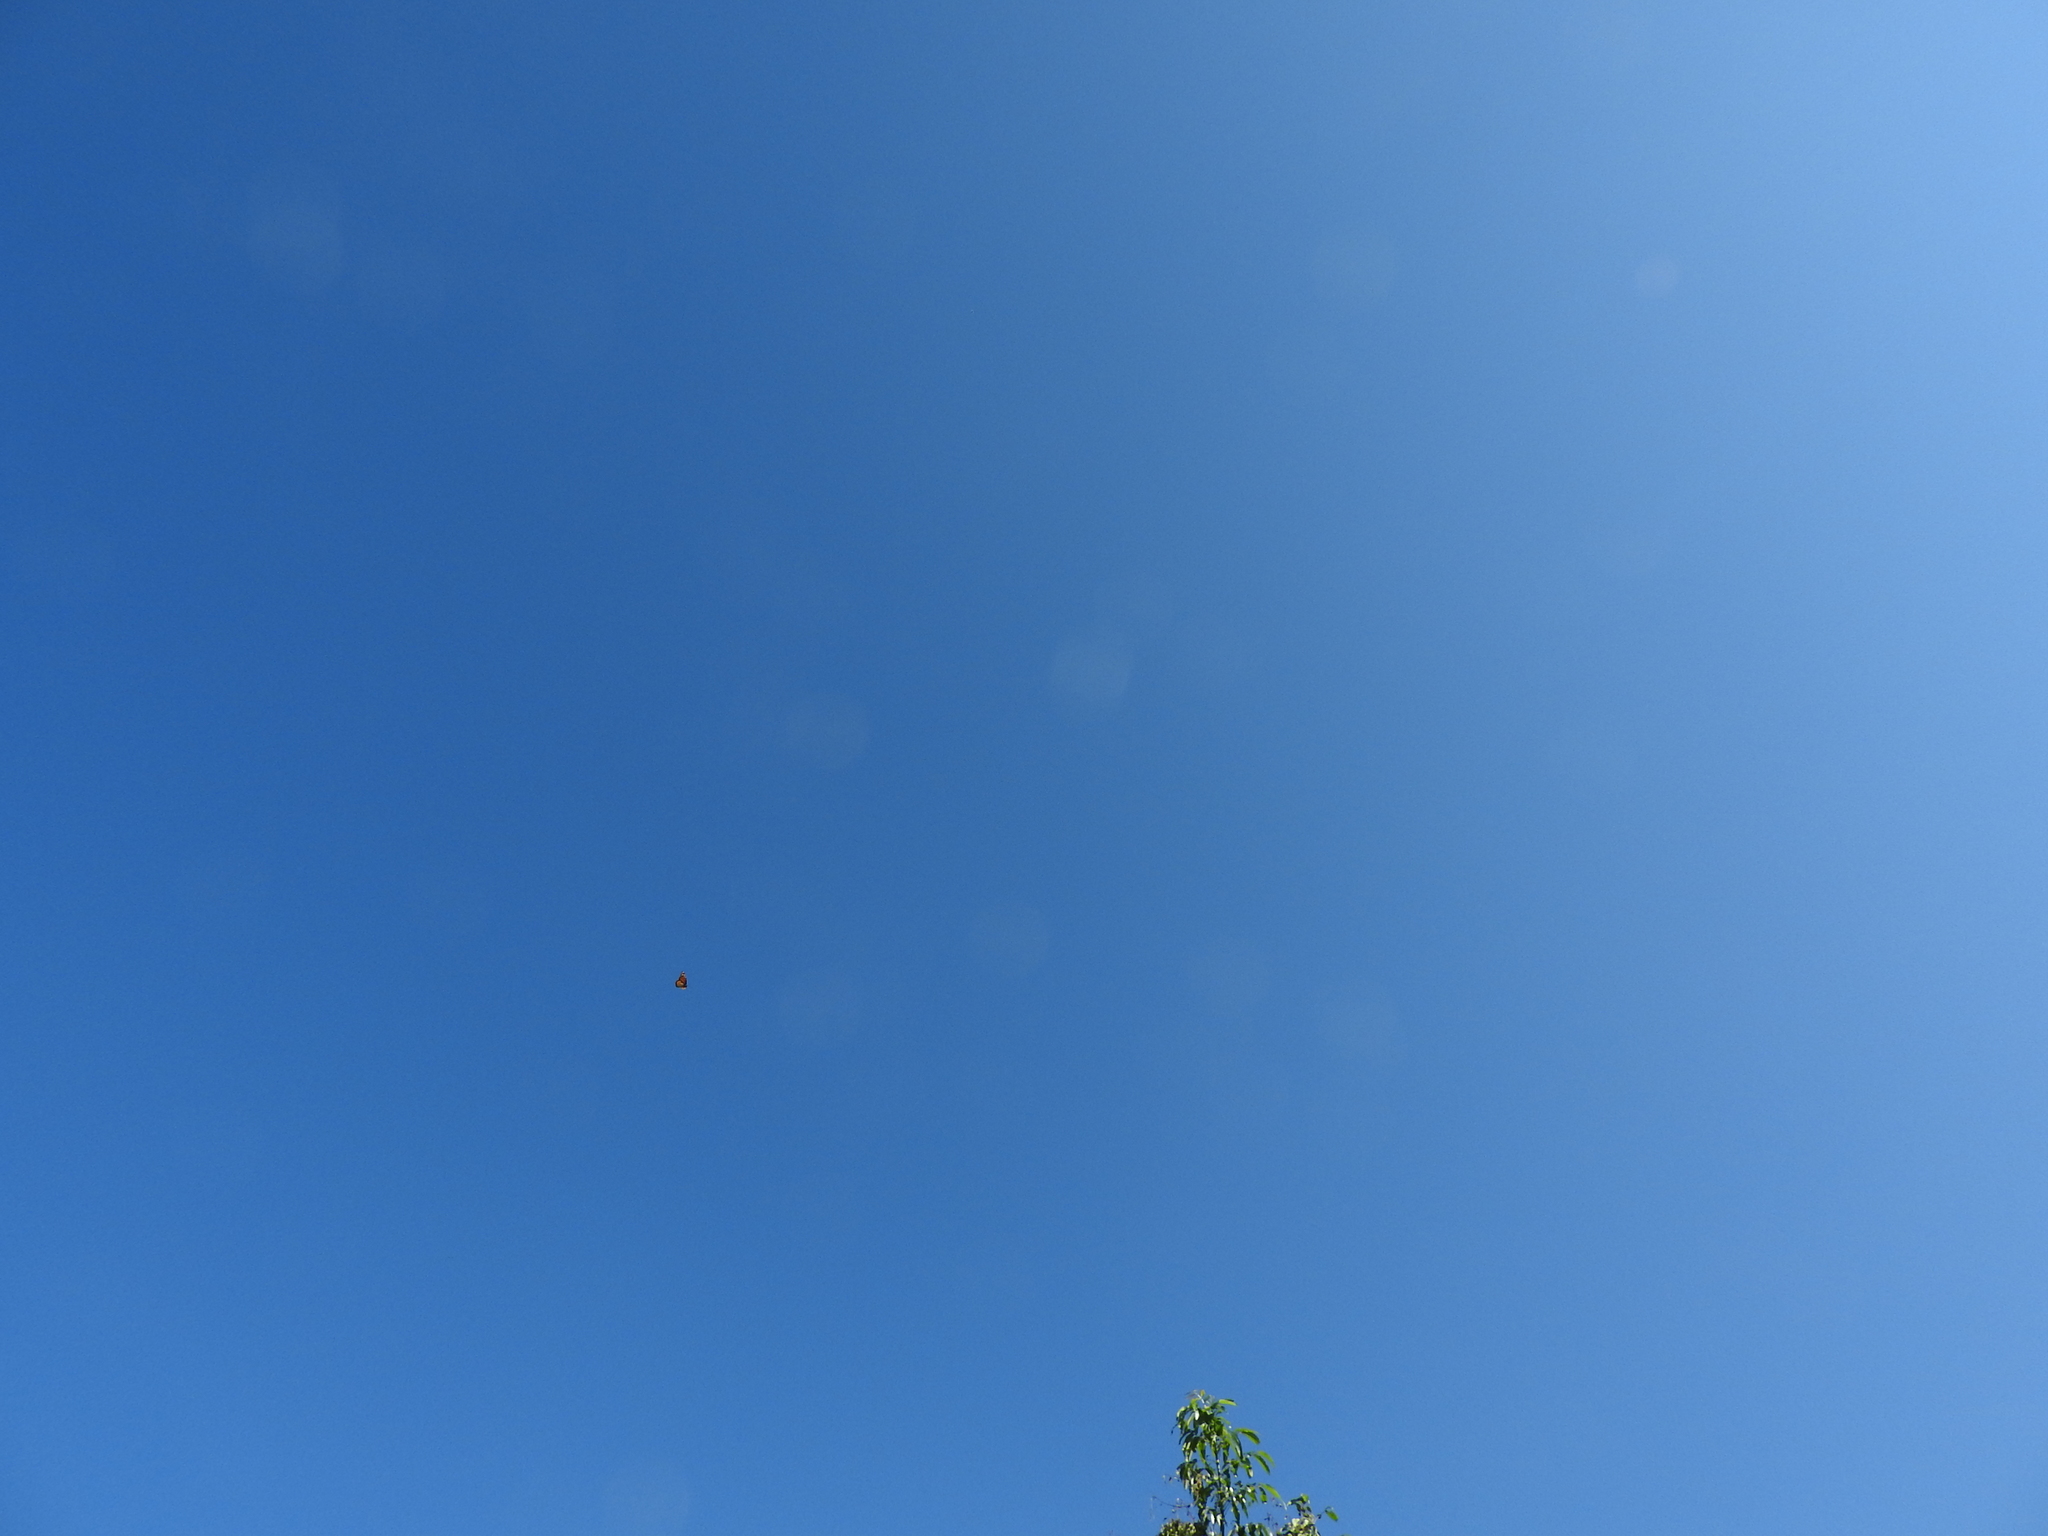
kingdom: Animalia
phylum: Arthropoda
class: Insecta
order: Lepidoptera
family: Nymphalidae
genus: Danaus
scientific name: Danaus plexippus
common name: Monarch
